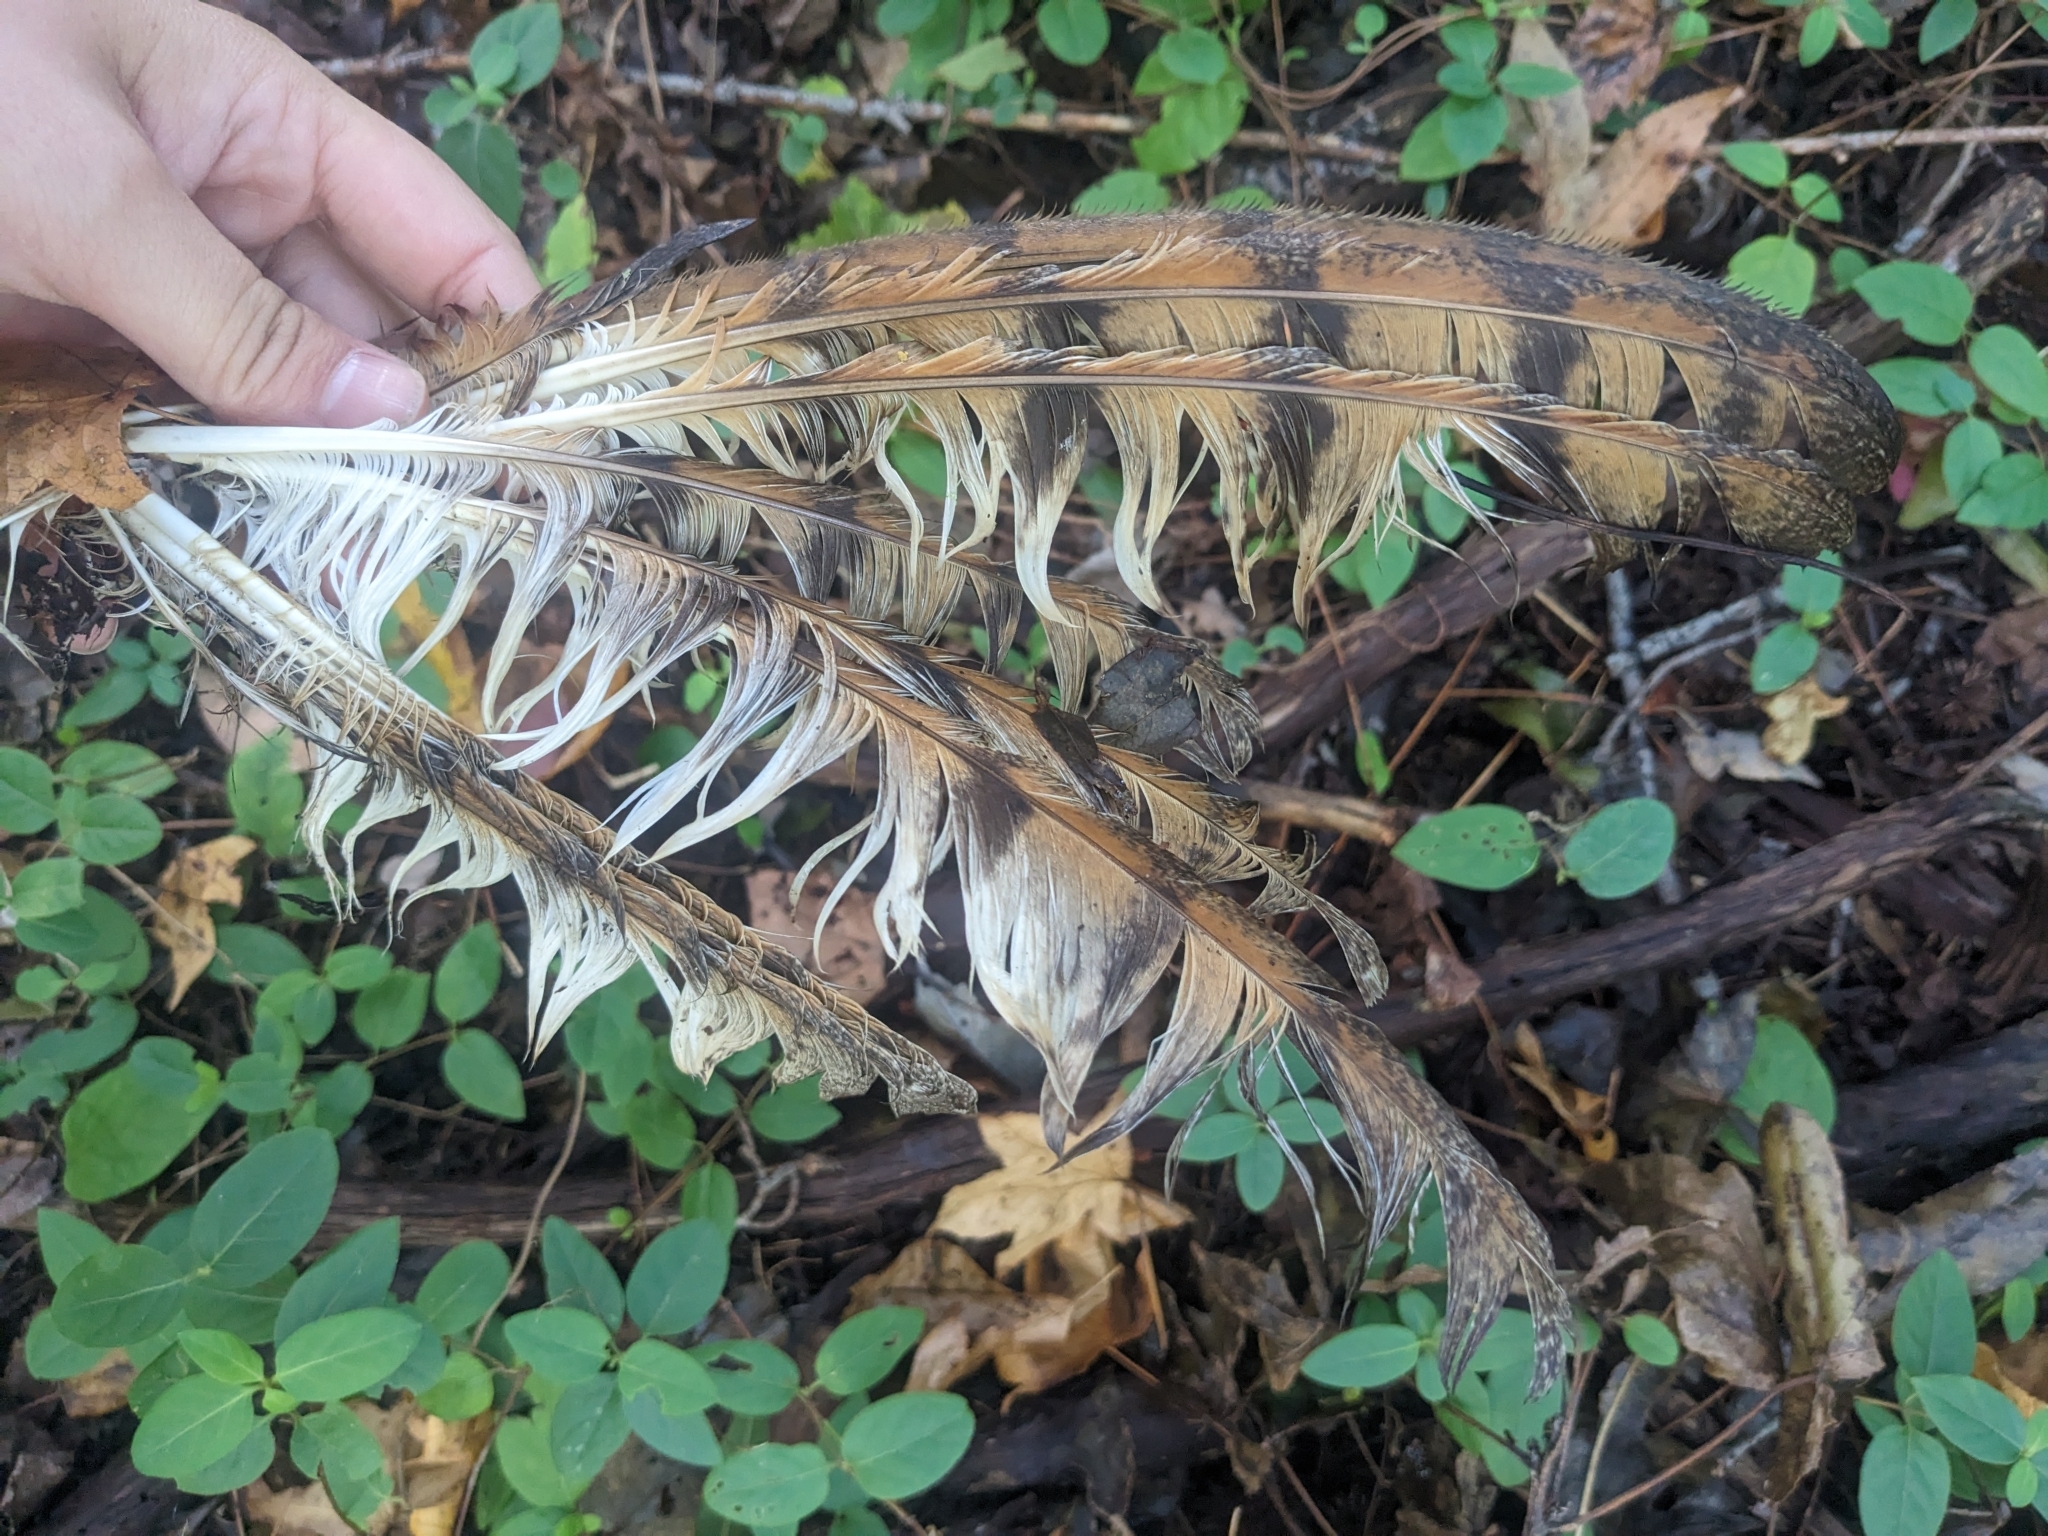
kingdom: Animalia
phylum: Chordata
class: Aves
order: Strigiformes
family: Tytonidae
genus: Tyto
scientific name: Tyto alba
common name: Barn owl
